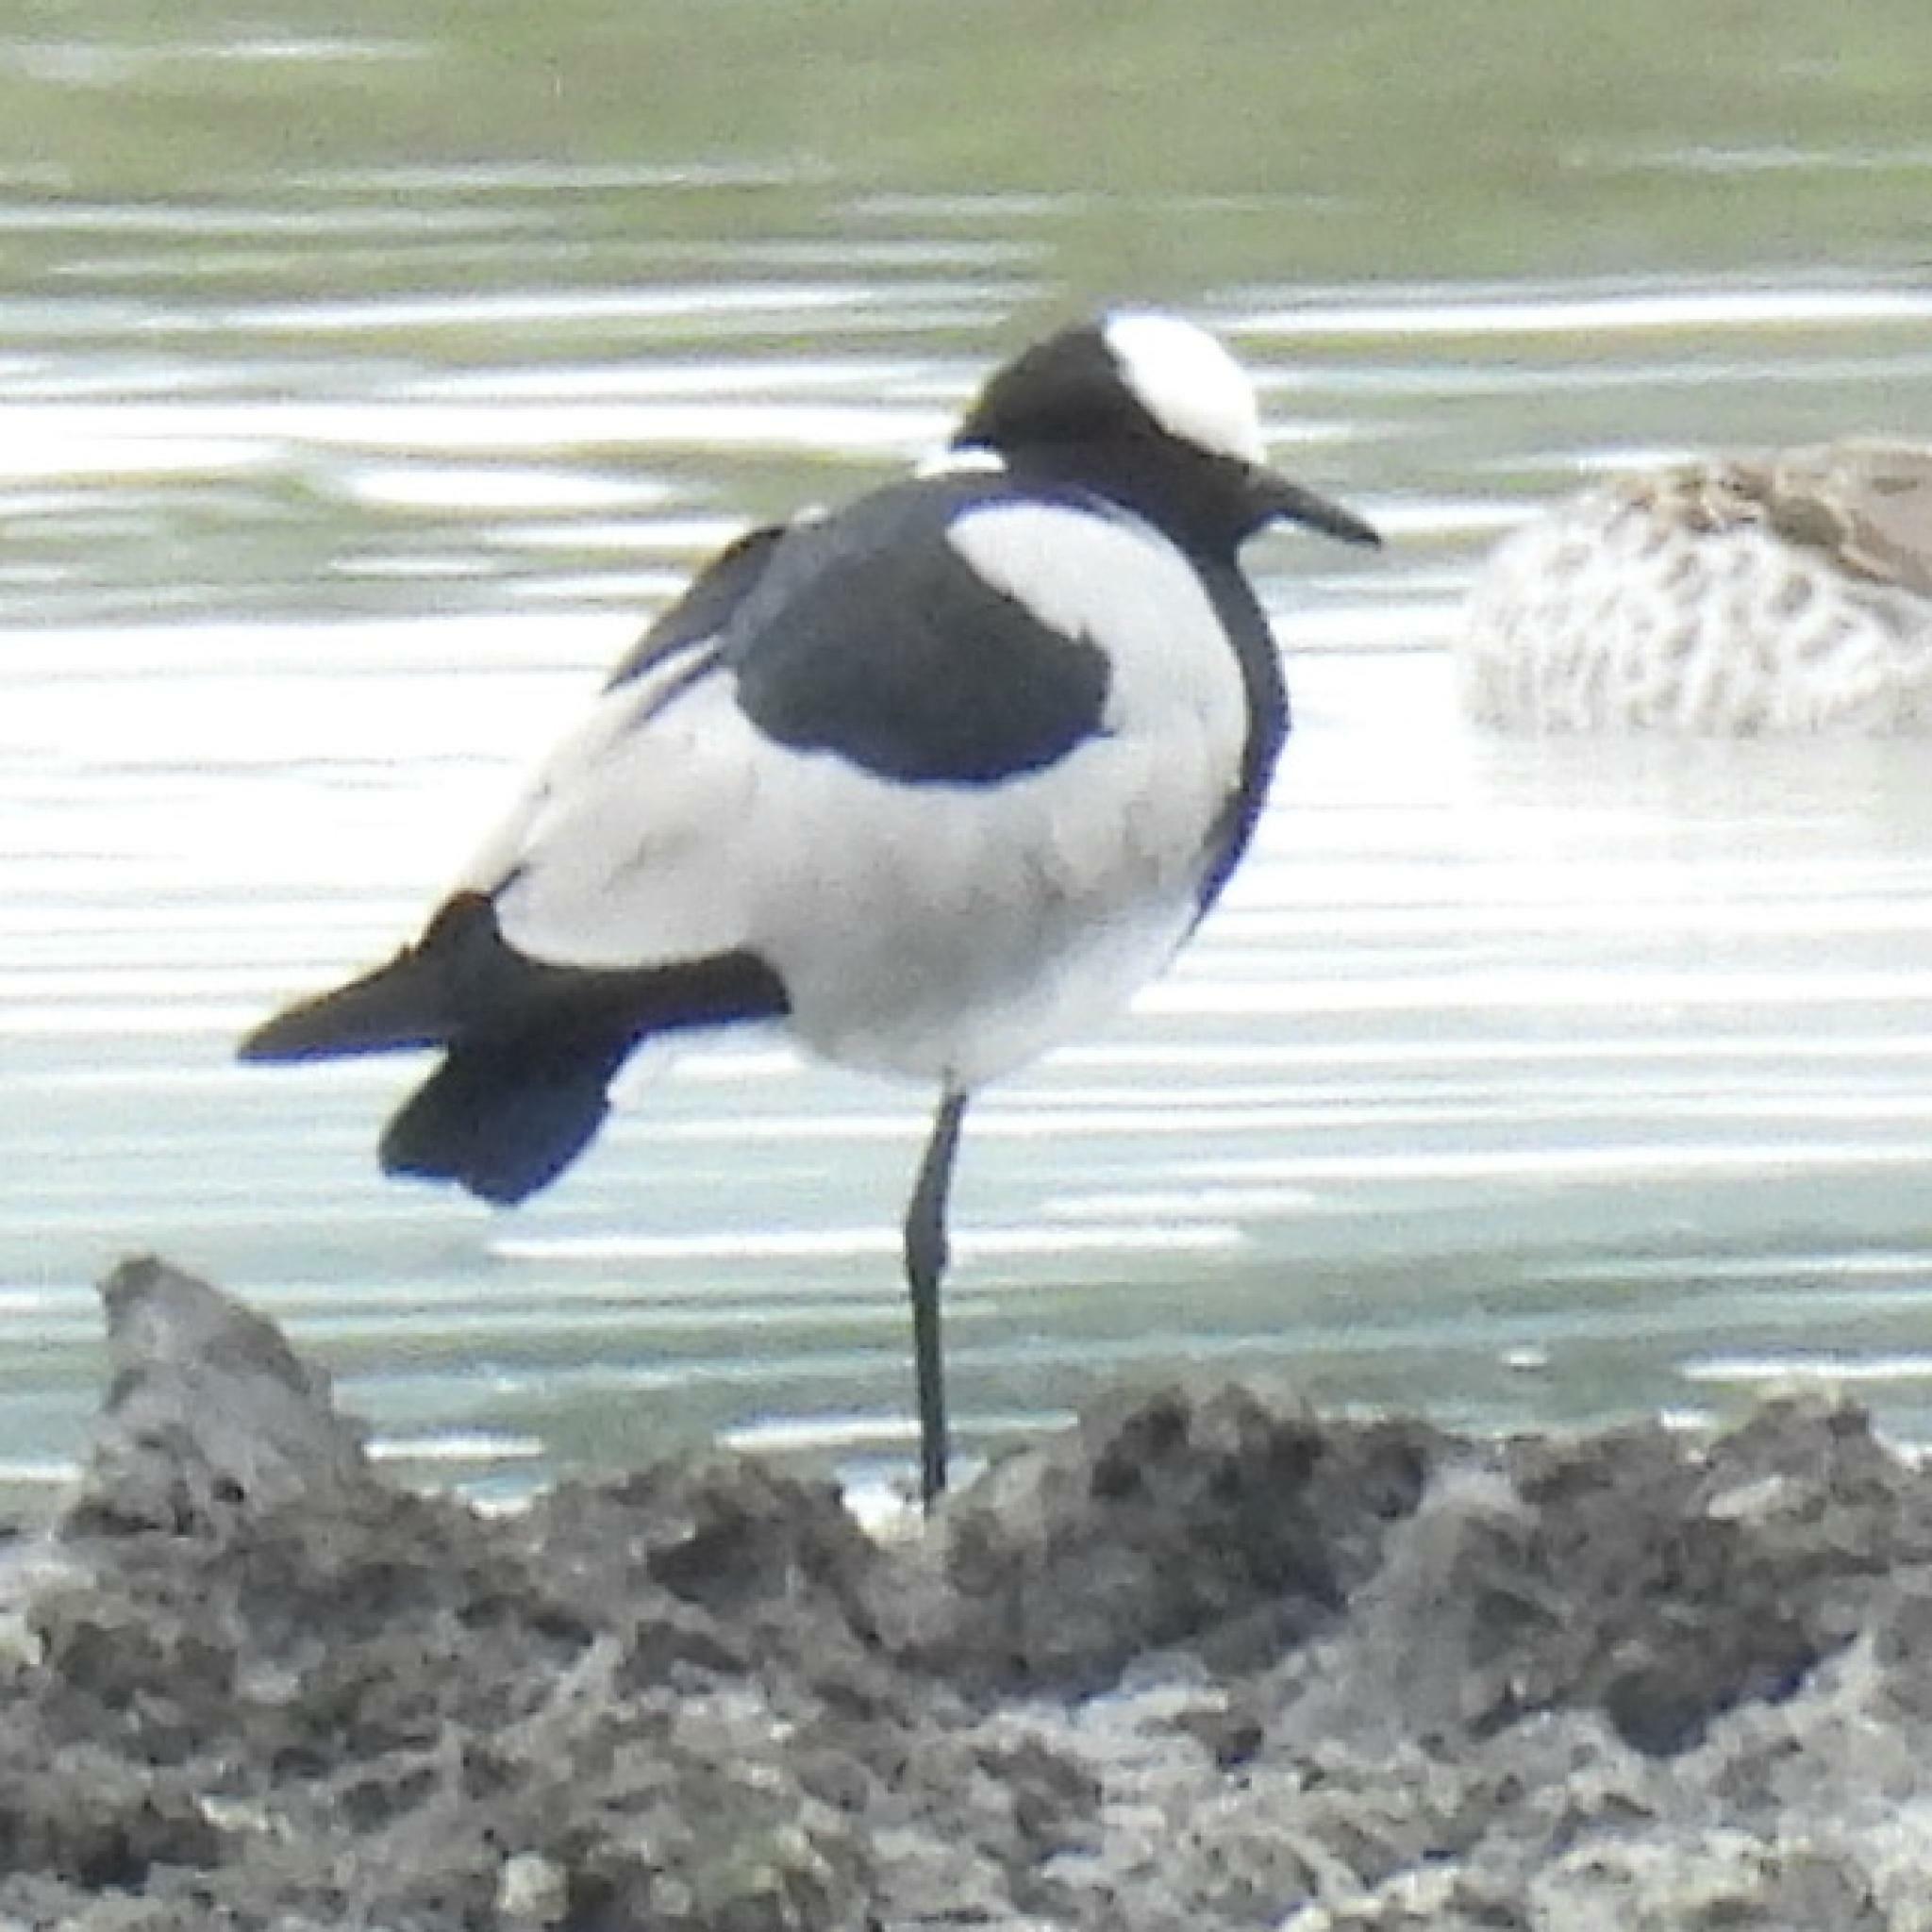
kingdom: Animalia
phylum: Chordata
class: Aves
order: Charadriiformes
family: Charadriidae
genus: Vanellus
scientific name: Vanellus armatus
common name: Blacksmith lapwing
